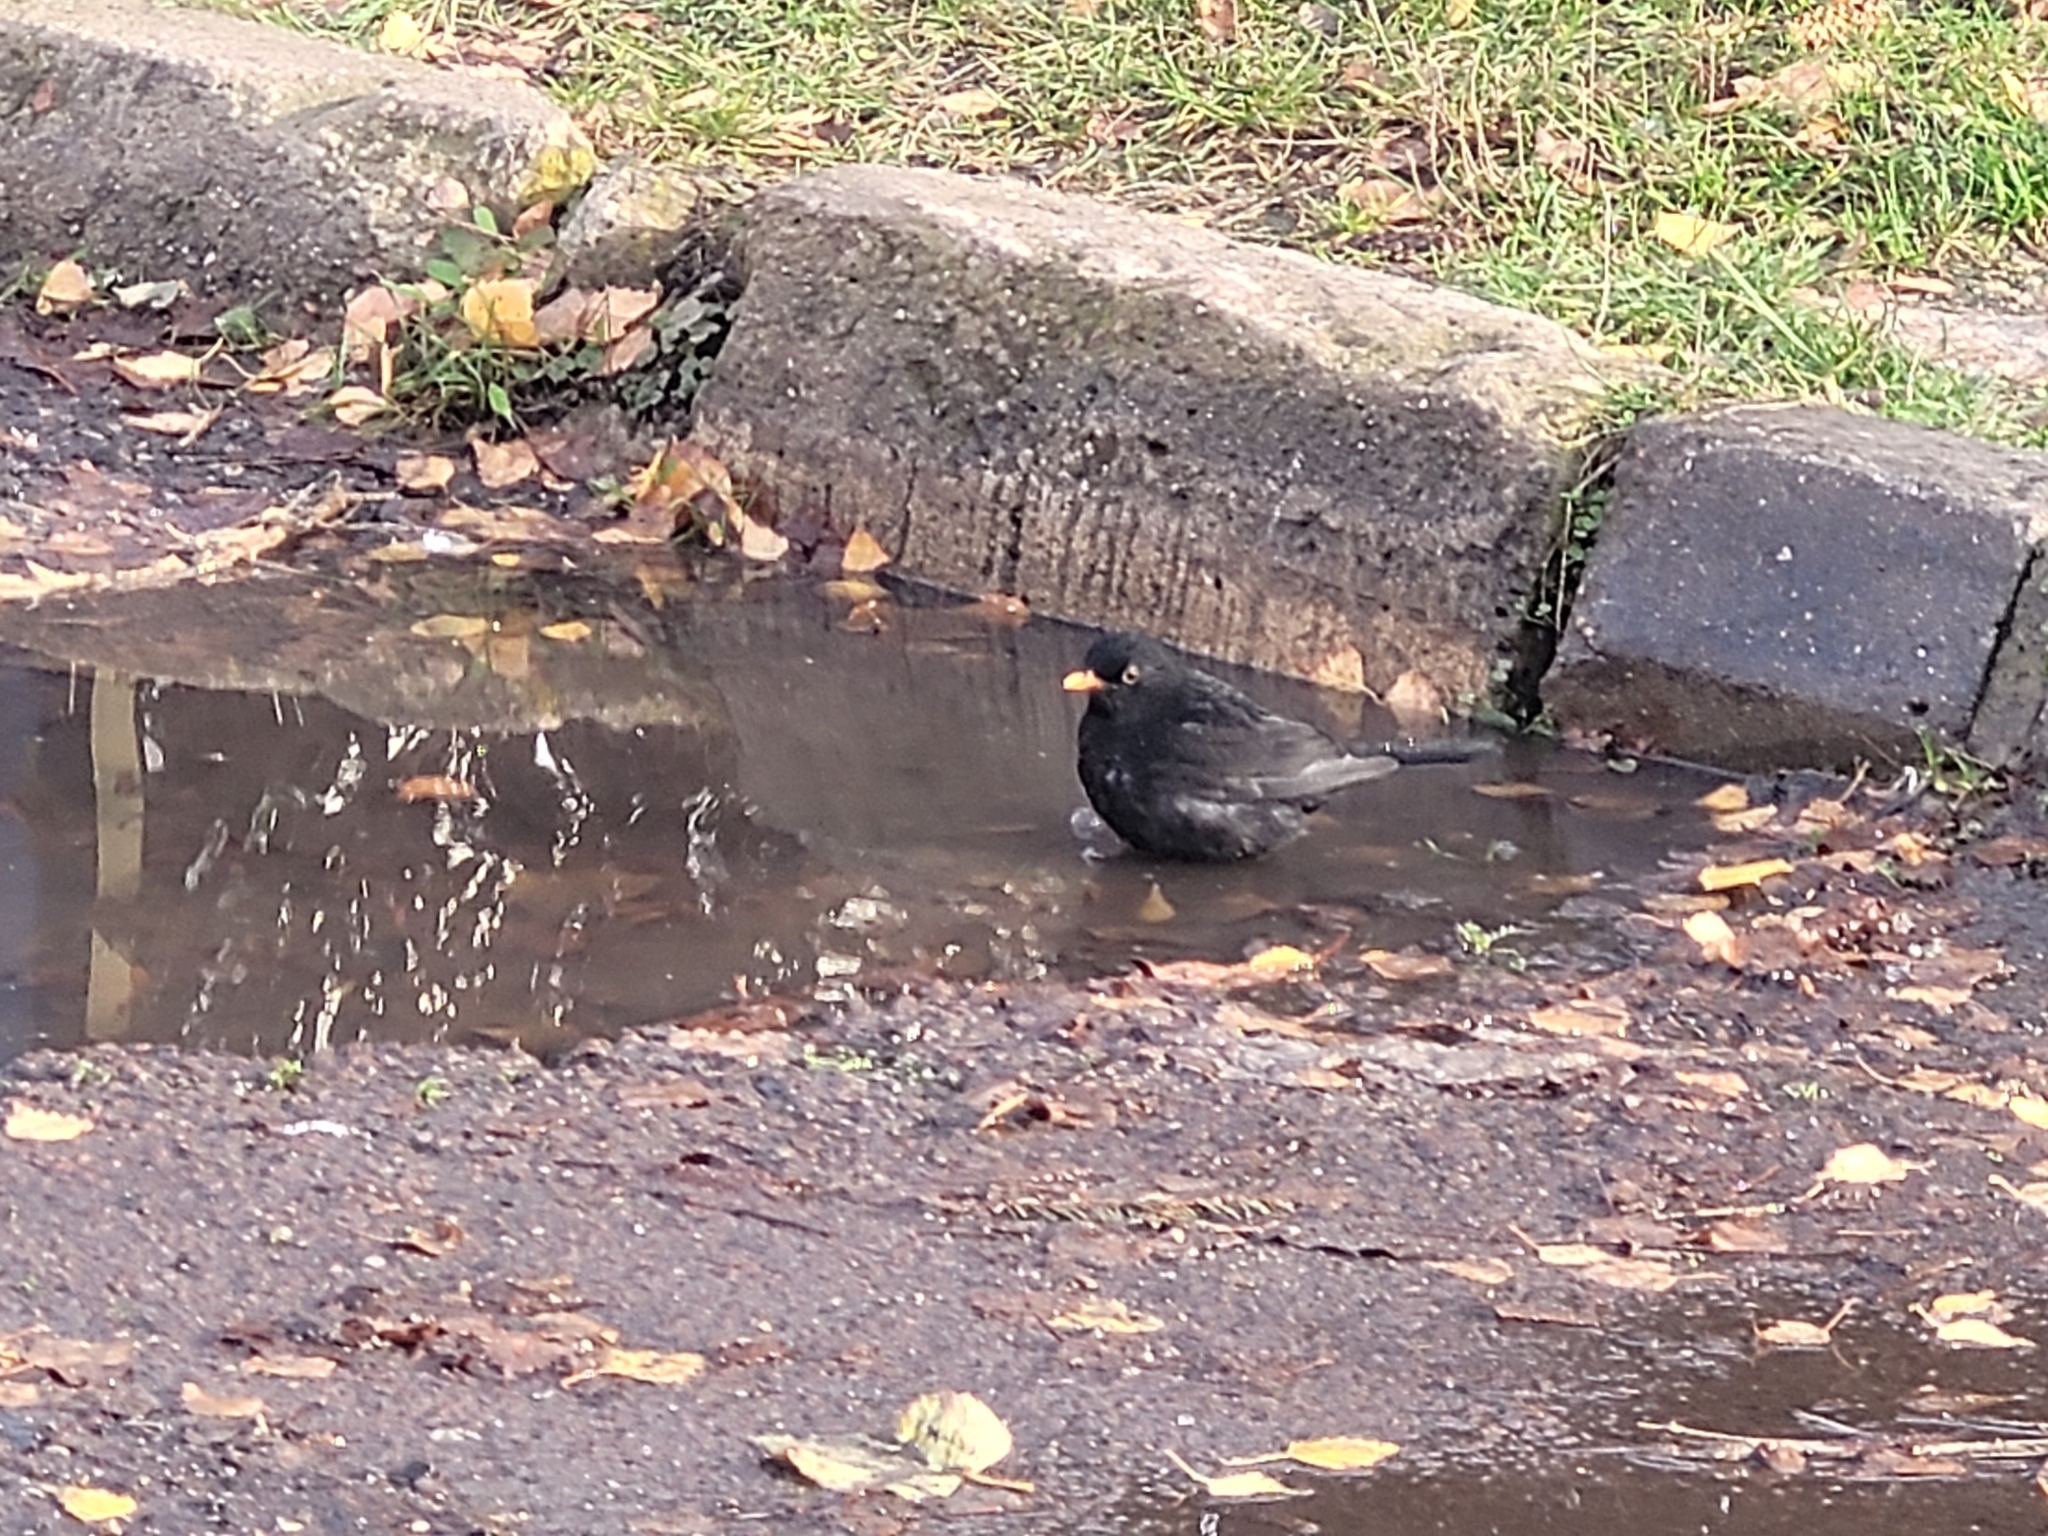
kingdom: Animalia
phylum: Chordata
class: Aves
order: Passeriformes
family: Turdidae
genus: Turdus
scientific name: Turdus merula
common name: Common blackbird
